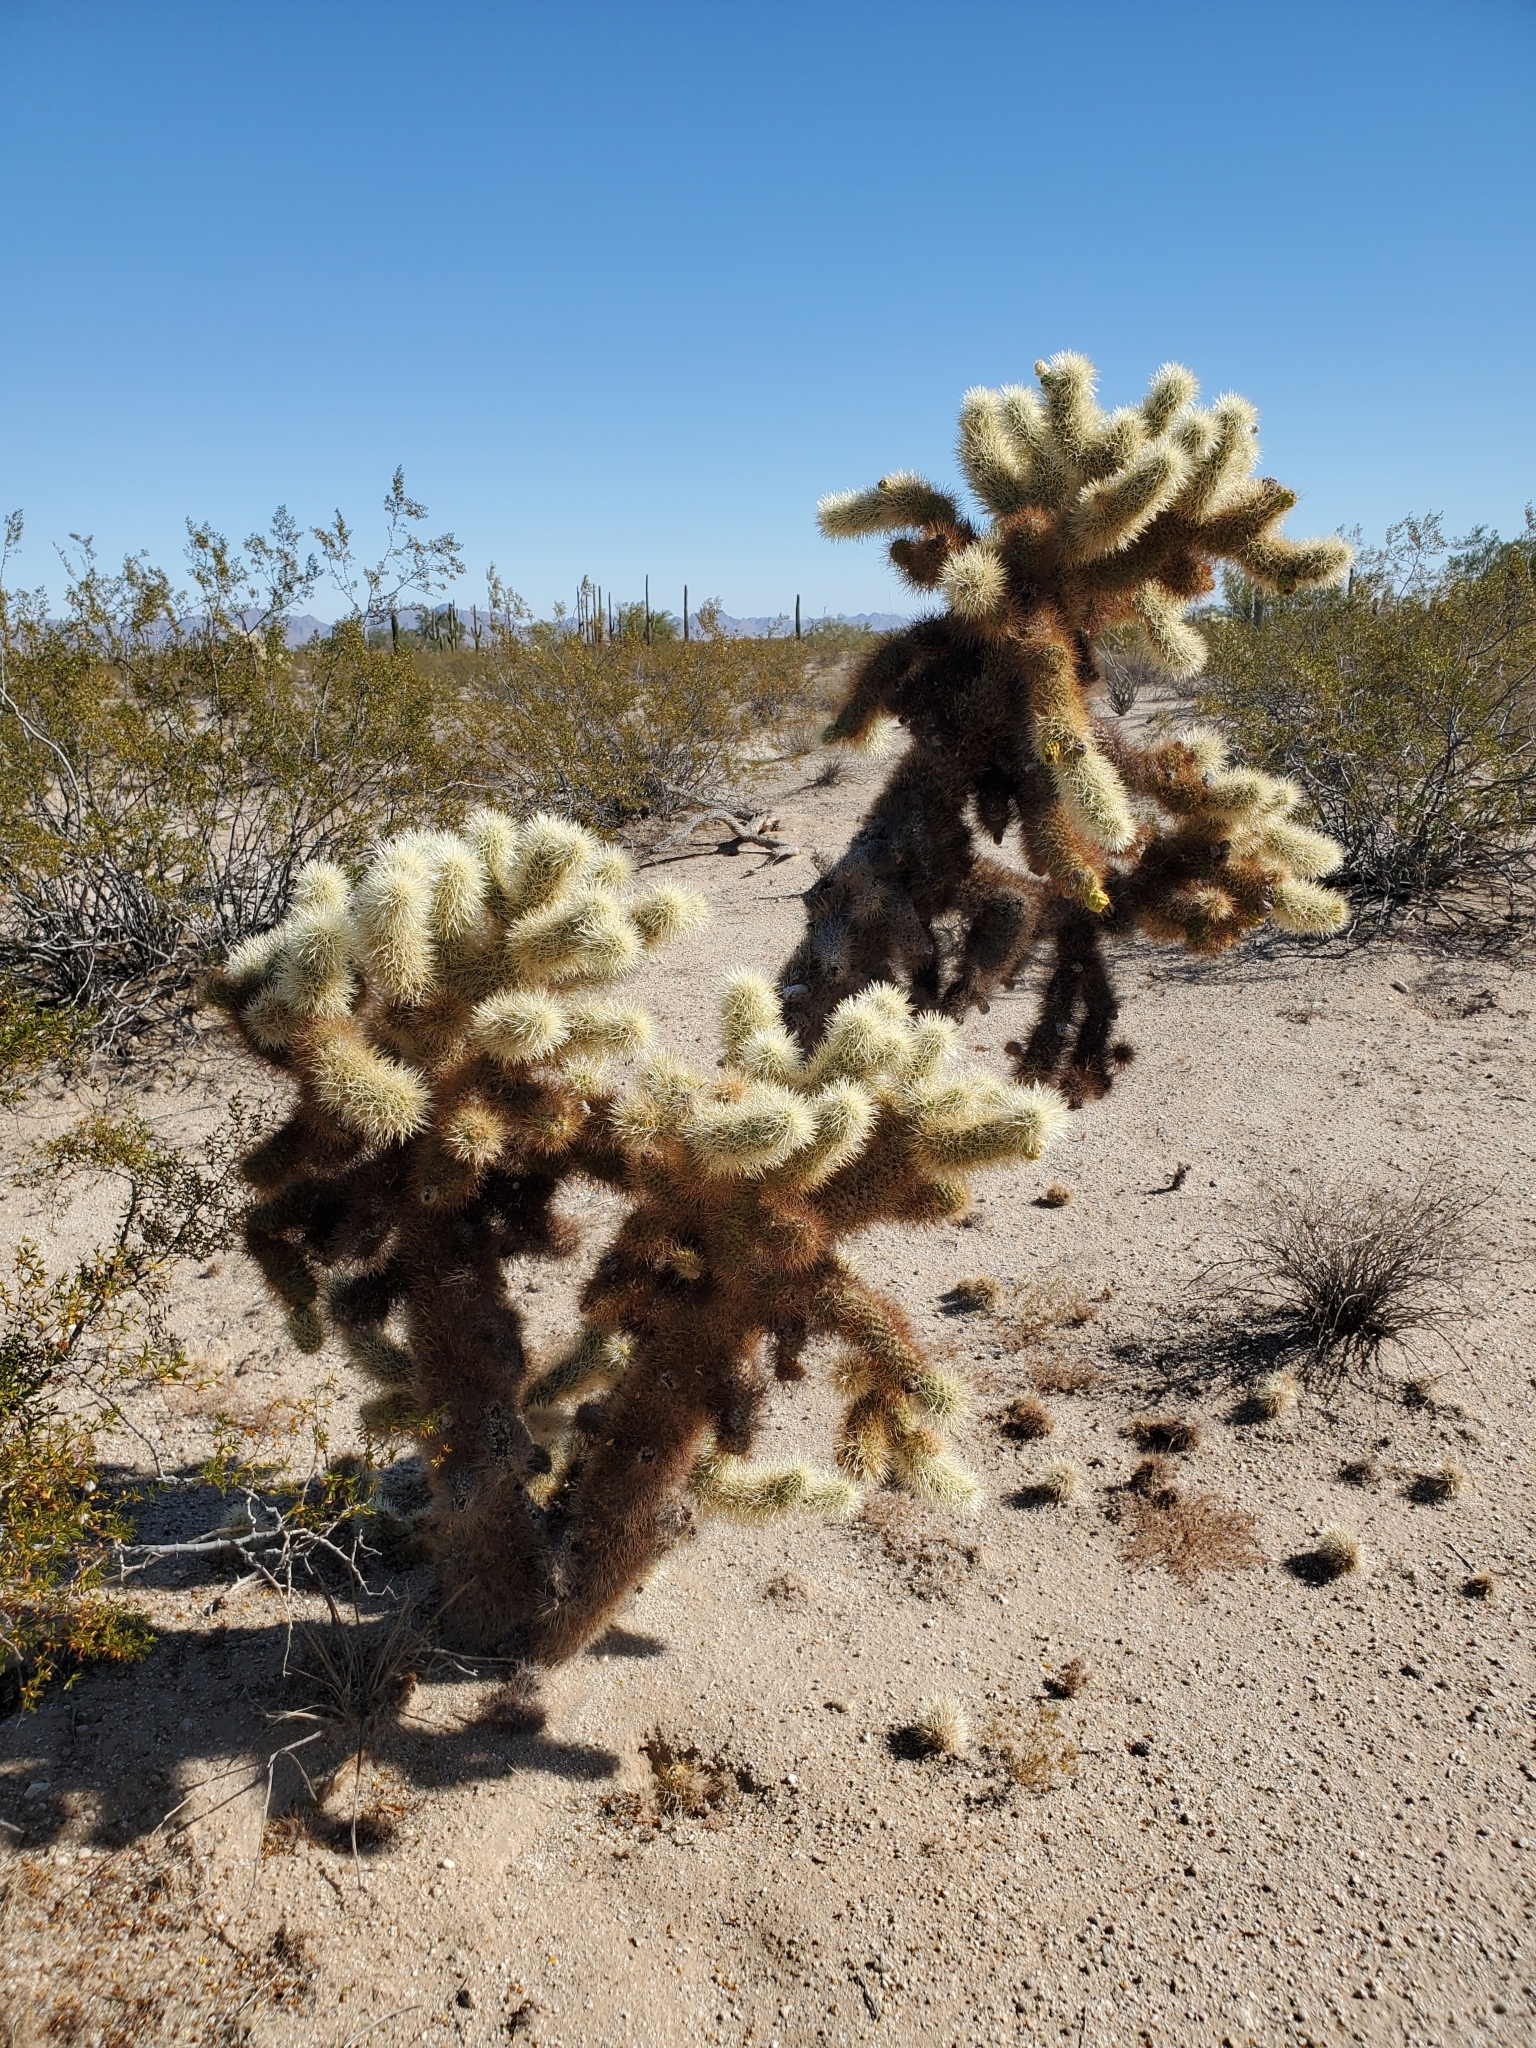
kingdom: Plantae
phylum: Tracheophyta
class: Magnoliopsida
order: Caryophyllales
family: Cactaceae
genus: Cylindropuntia
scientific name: Cylindropuntia fosbergii
